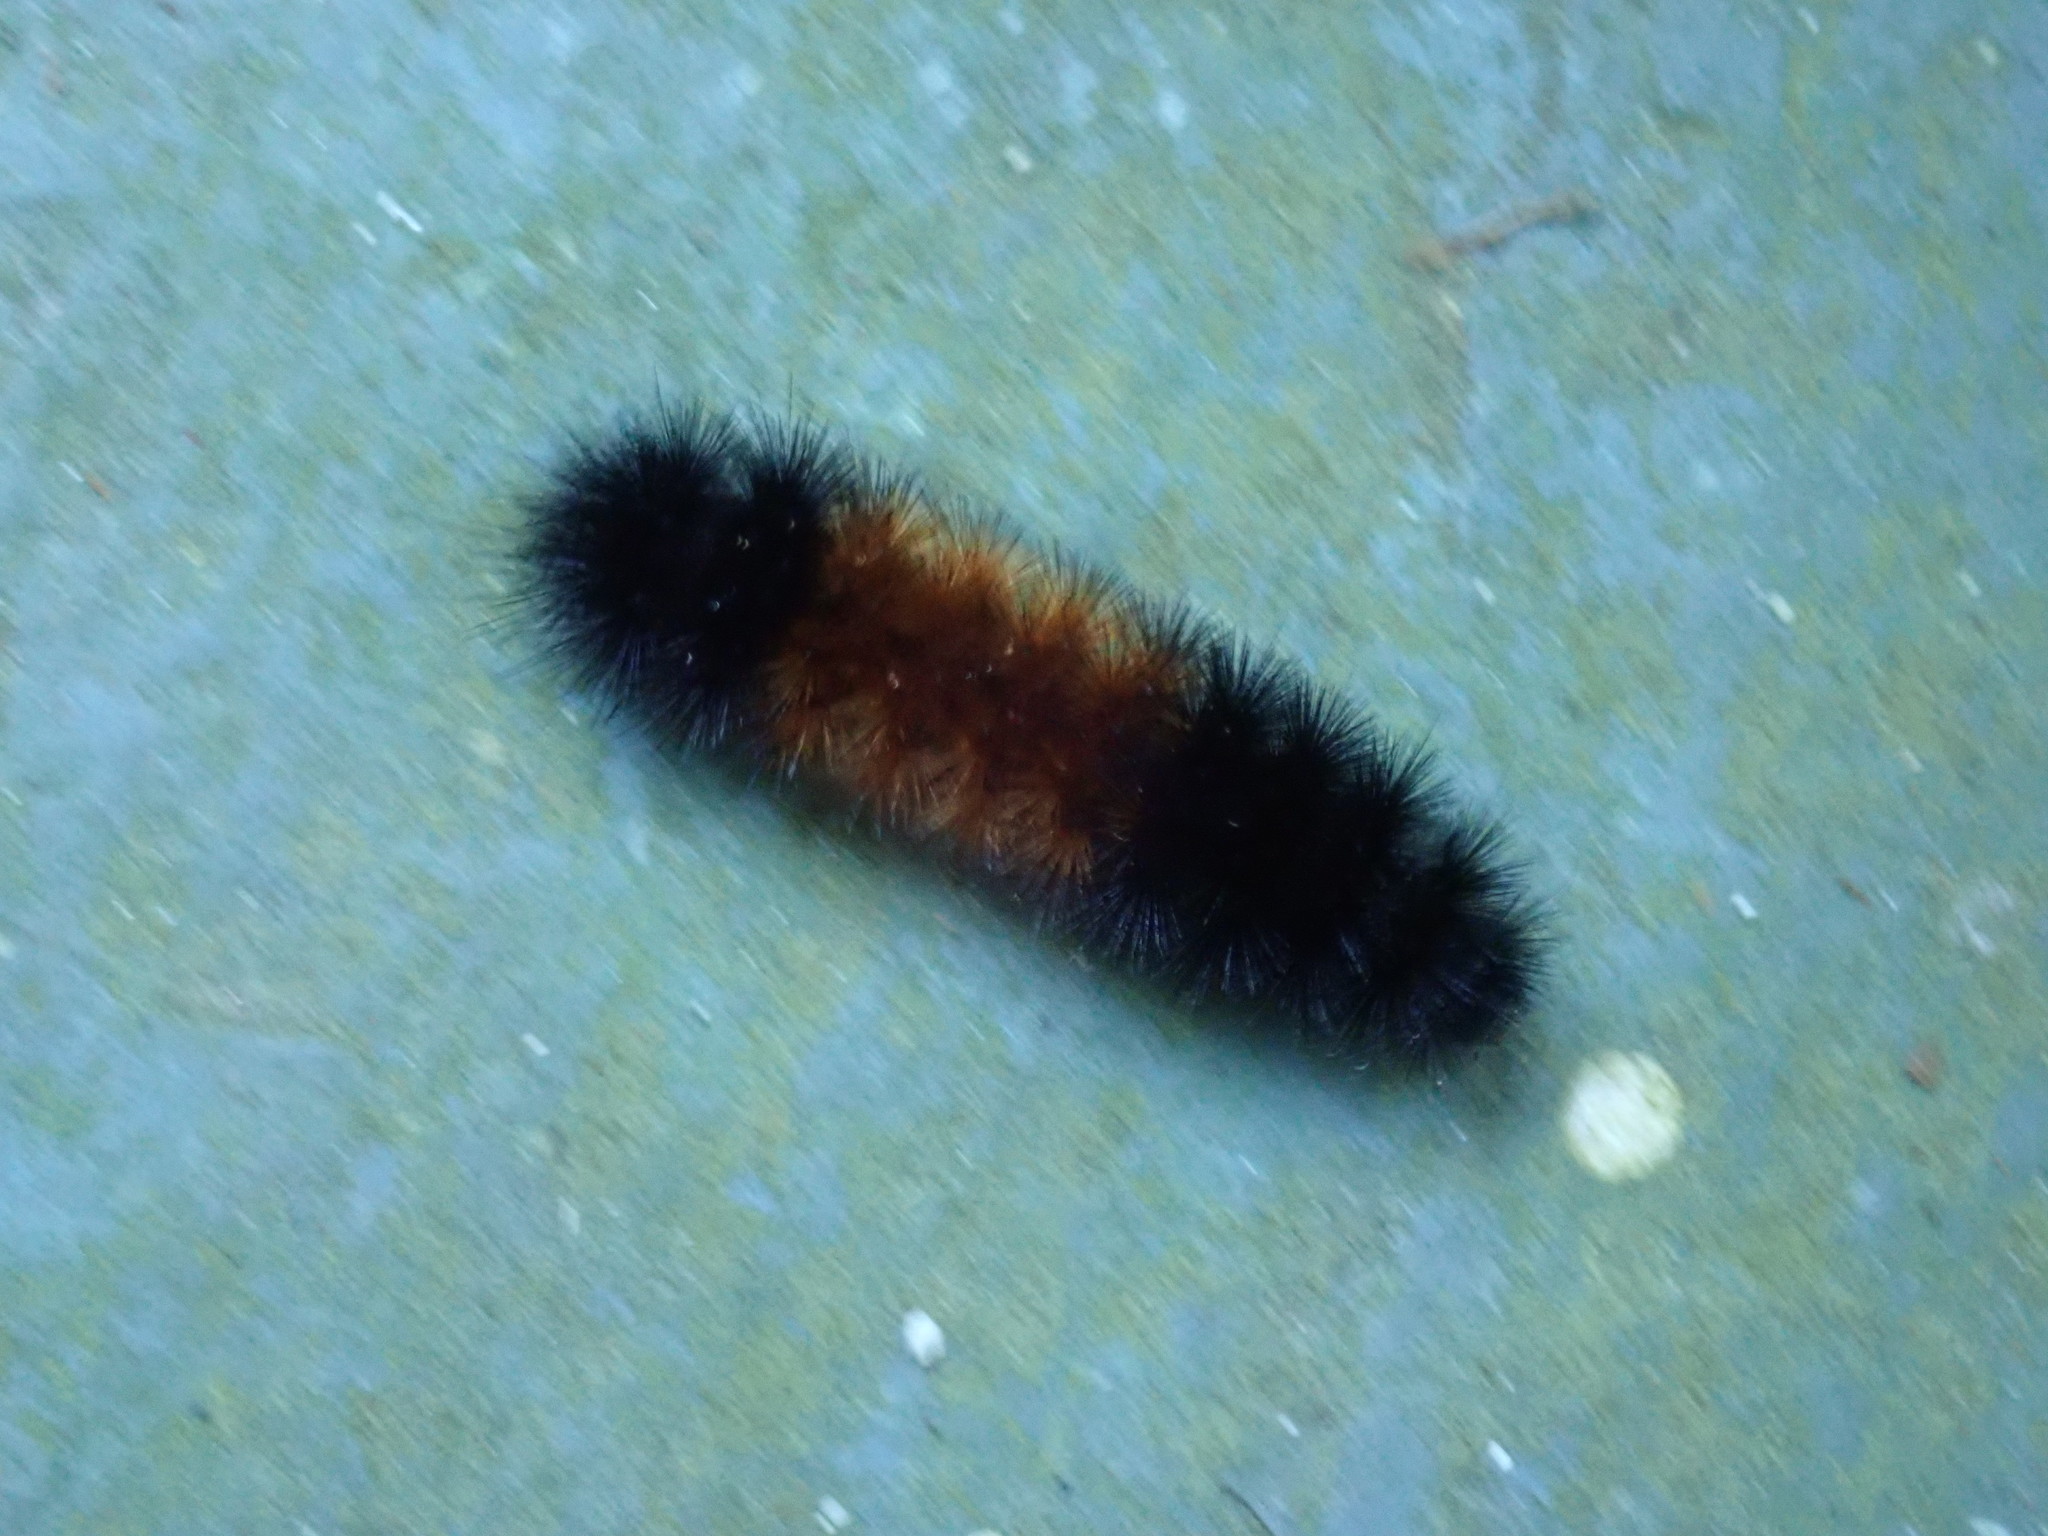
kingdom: Animalia
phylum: Arthropoda
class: Insecta
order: Lepidoptera
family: Erebidae
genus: Pyrrharctia
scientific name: Pyrrharctia isabella
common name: Isabella tiger moth
